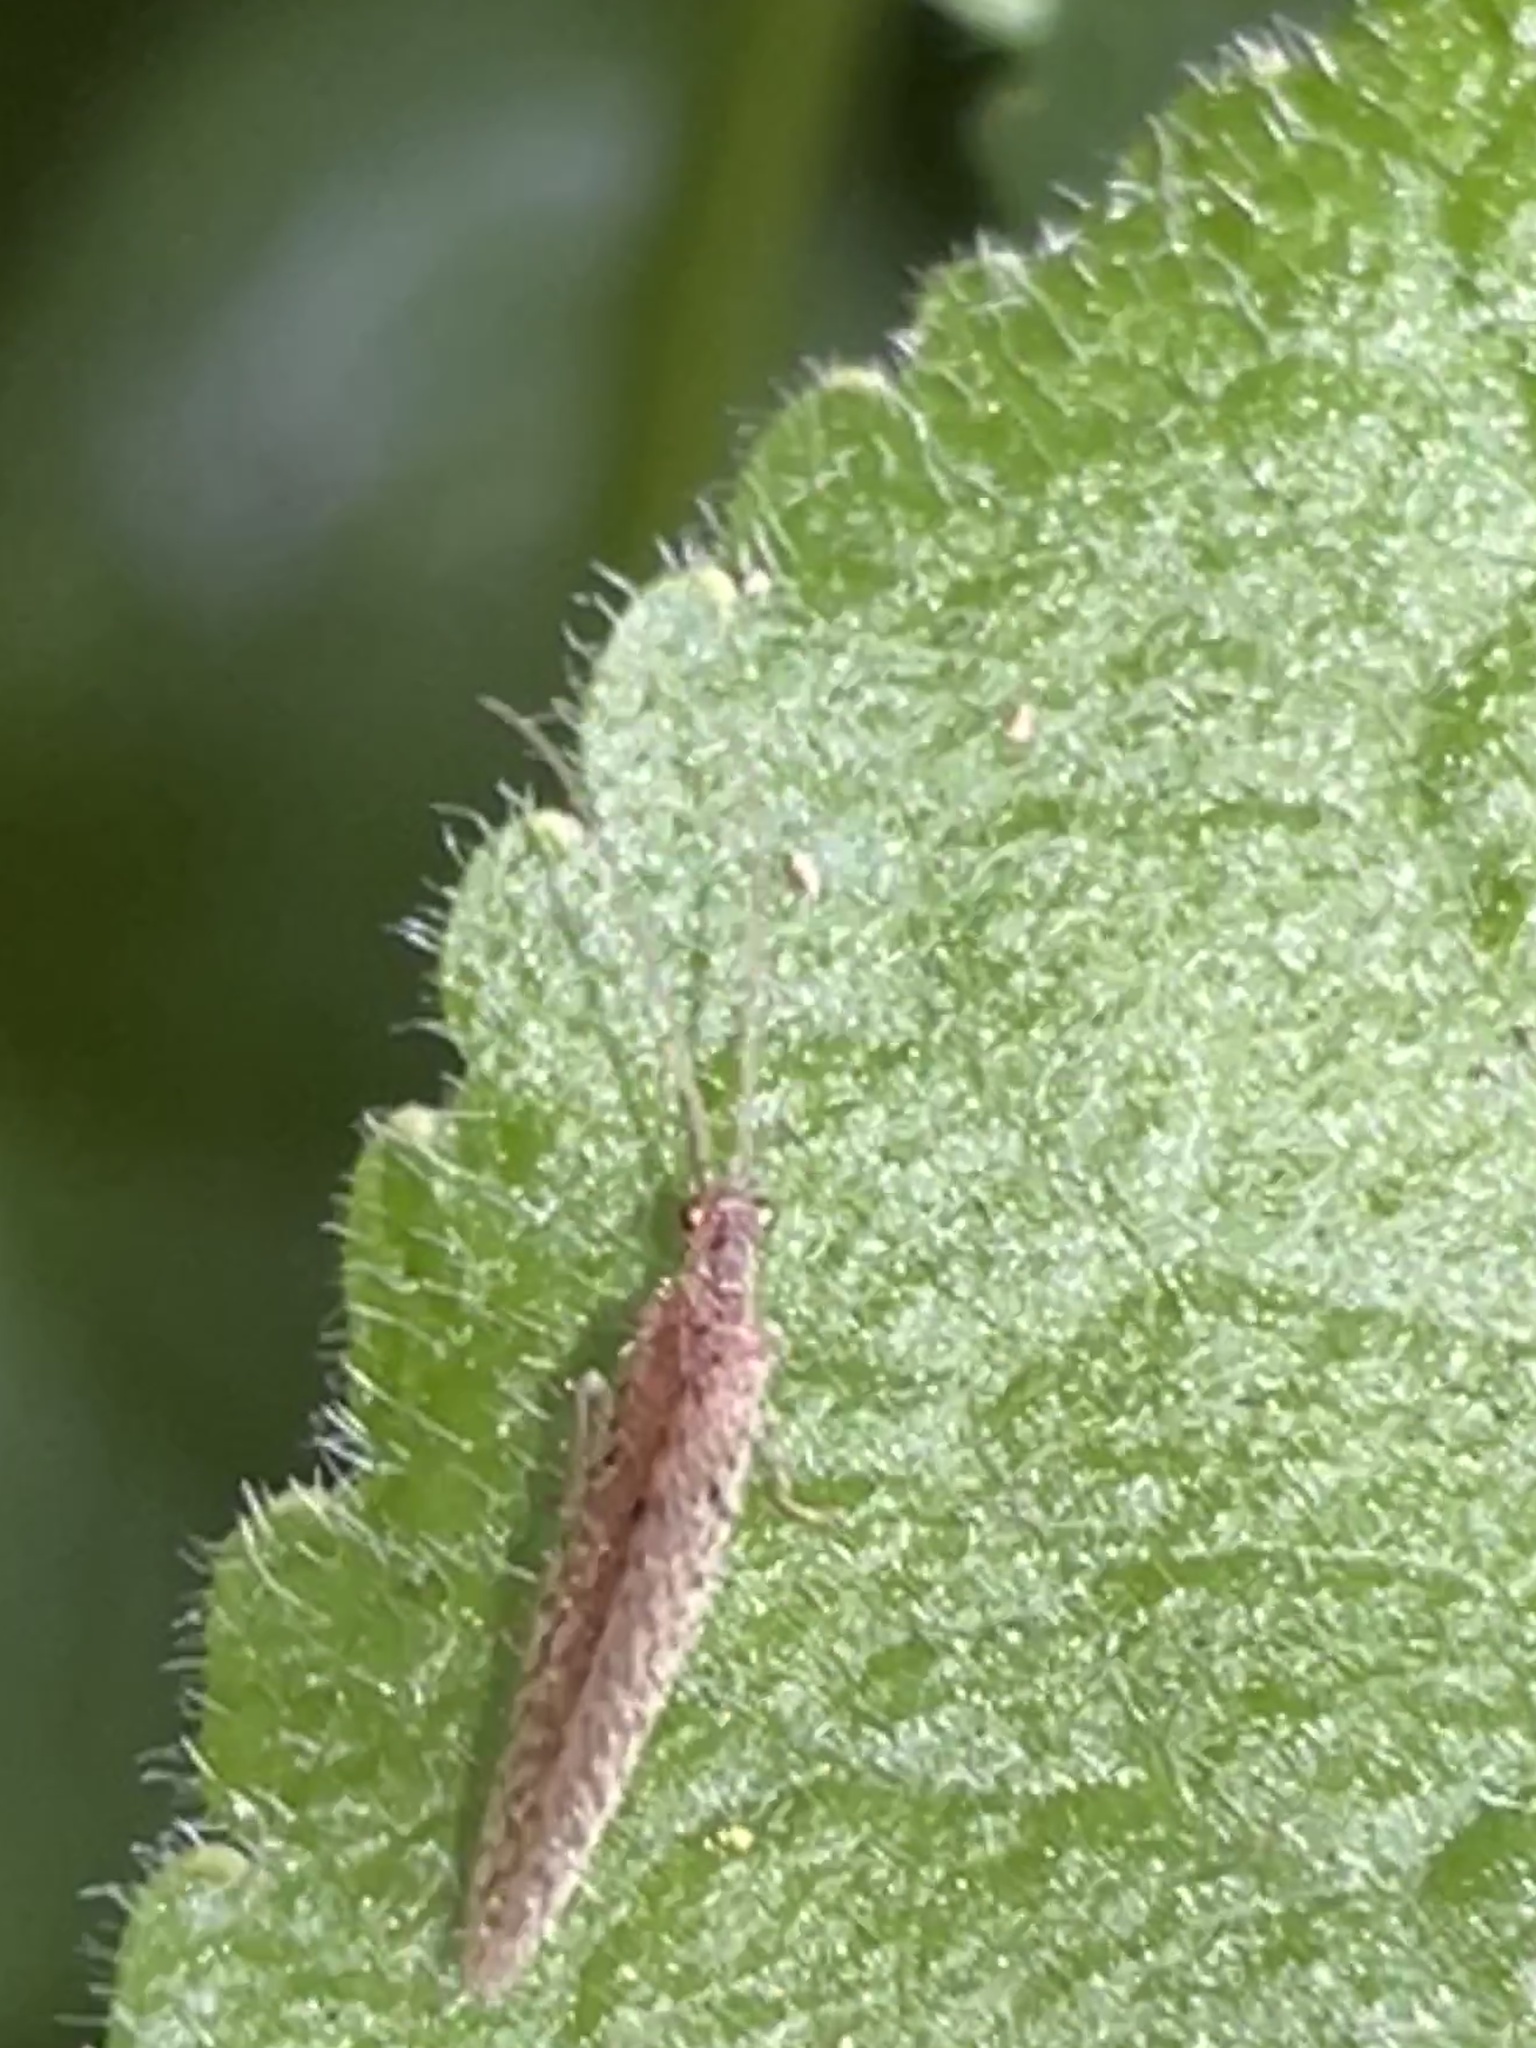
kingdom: Animalia
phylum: Arthropoda
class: Insecta
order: Neuroptera
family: Hemerobiidae
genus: Micromus
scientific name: Micromus tasmaniae
